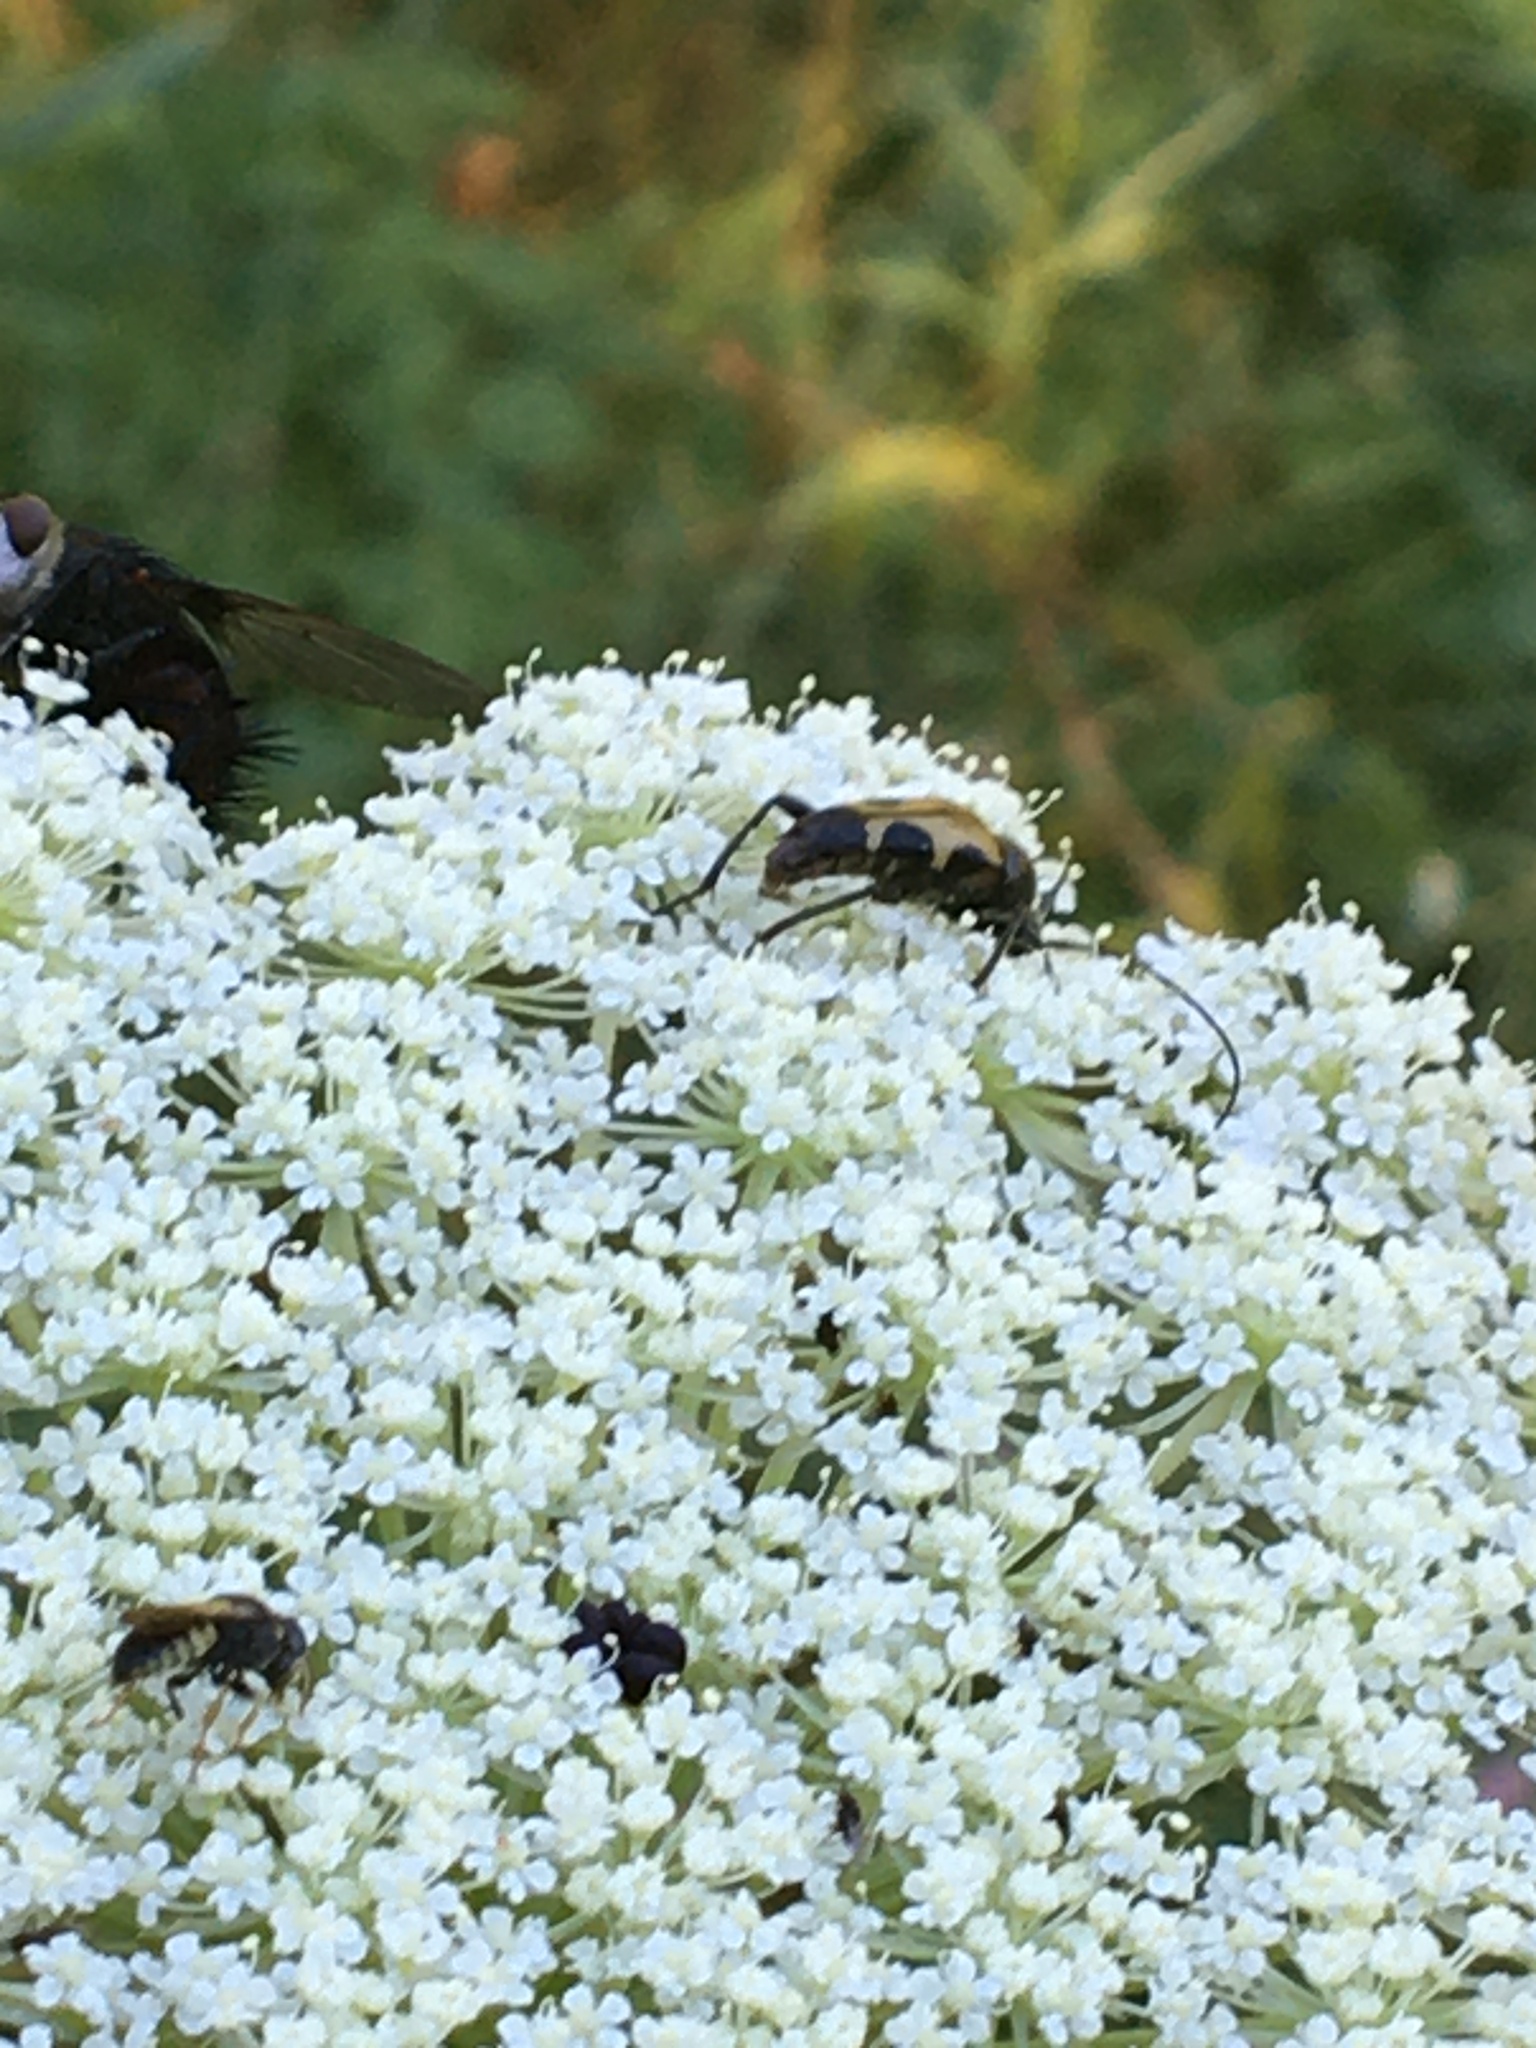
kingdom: Animalia
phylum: Arthropoda
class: Insecta
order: Coleoptera
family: Cerambycidae
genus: Judolia
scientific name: Judolia cordifera
